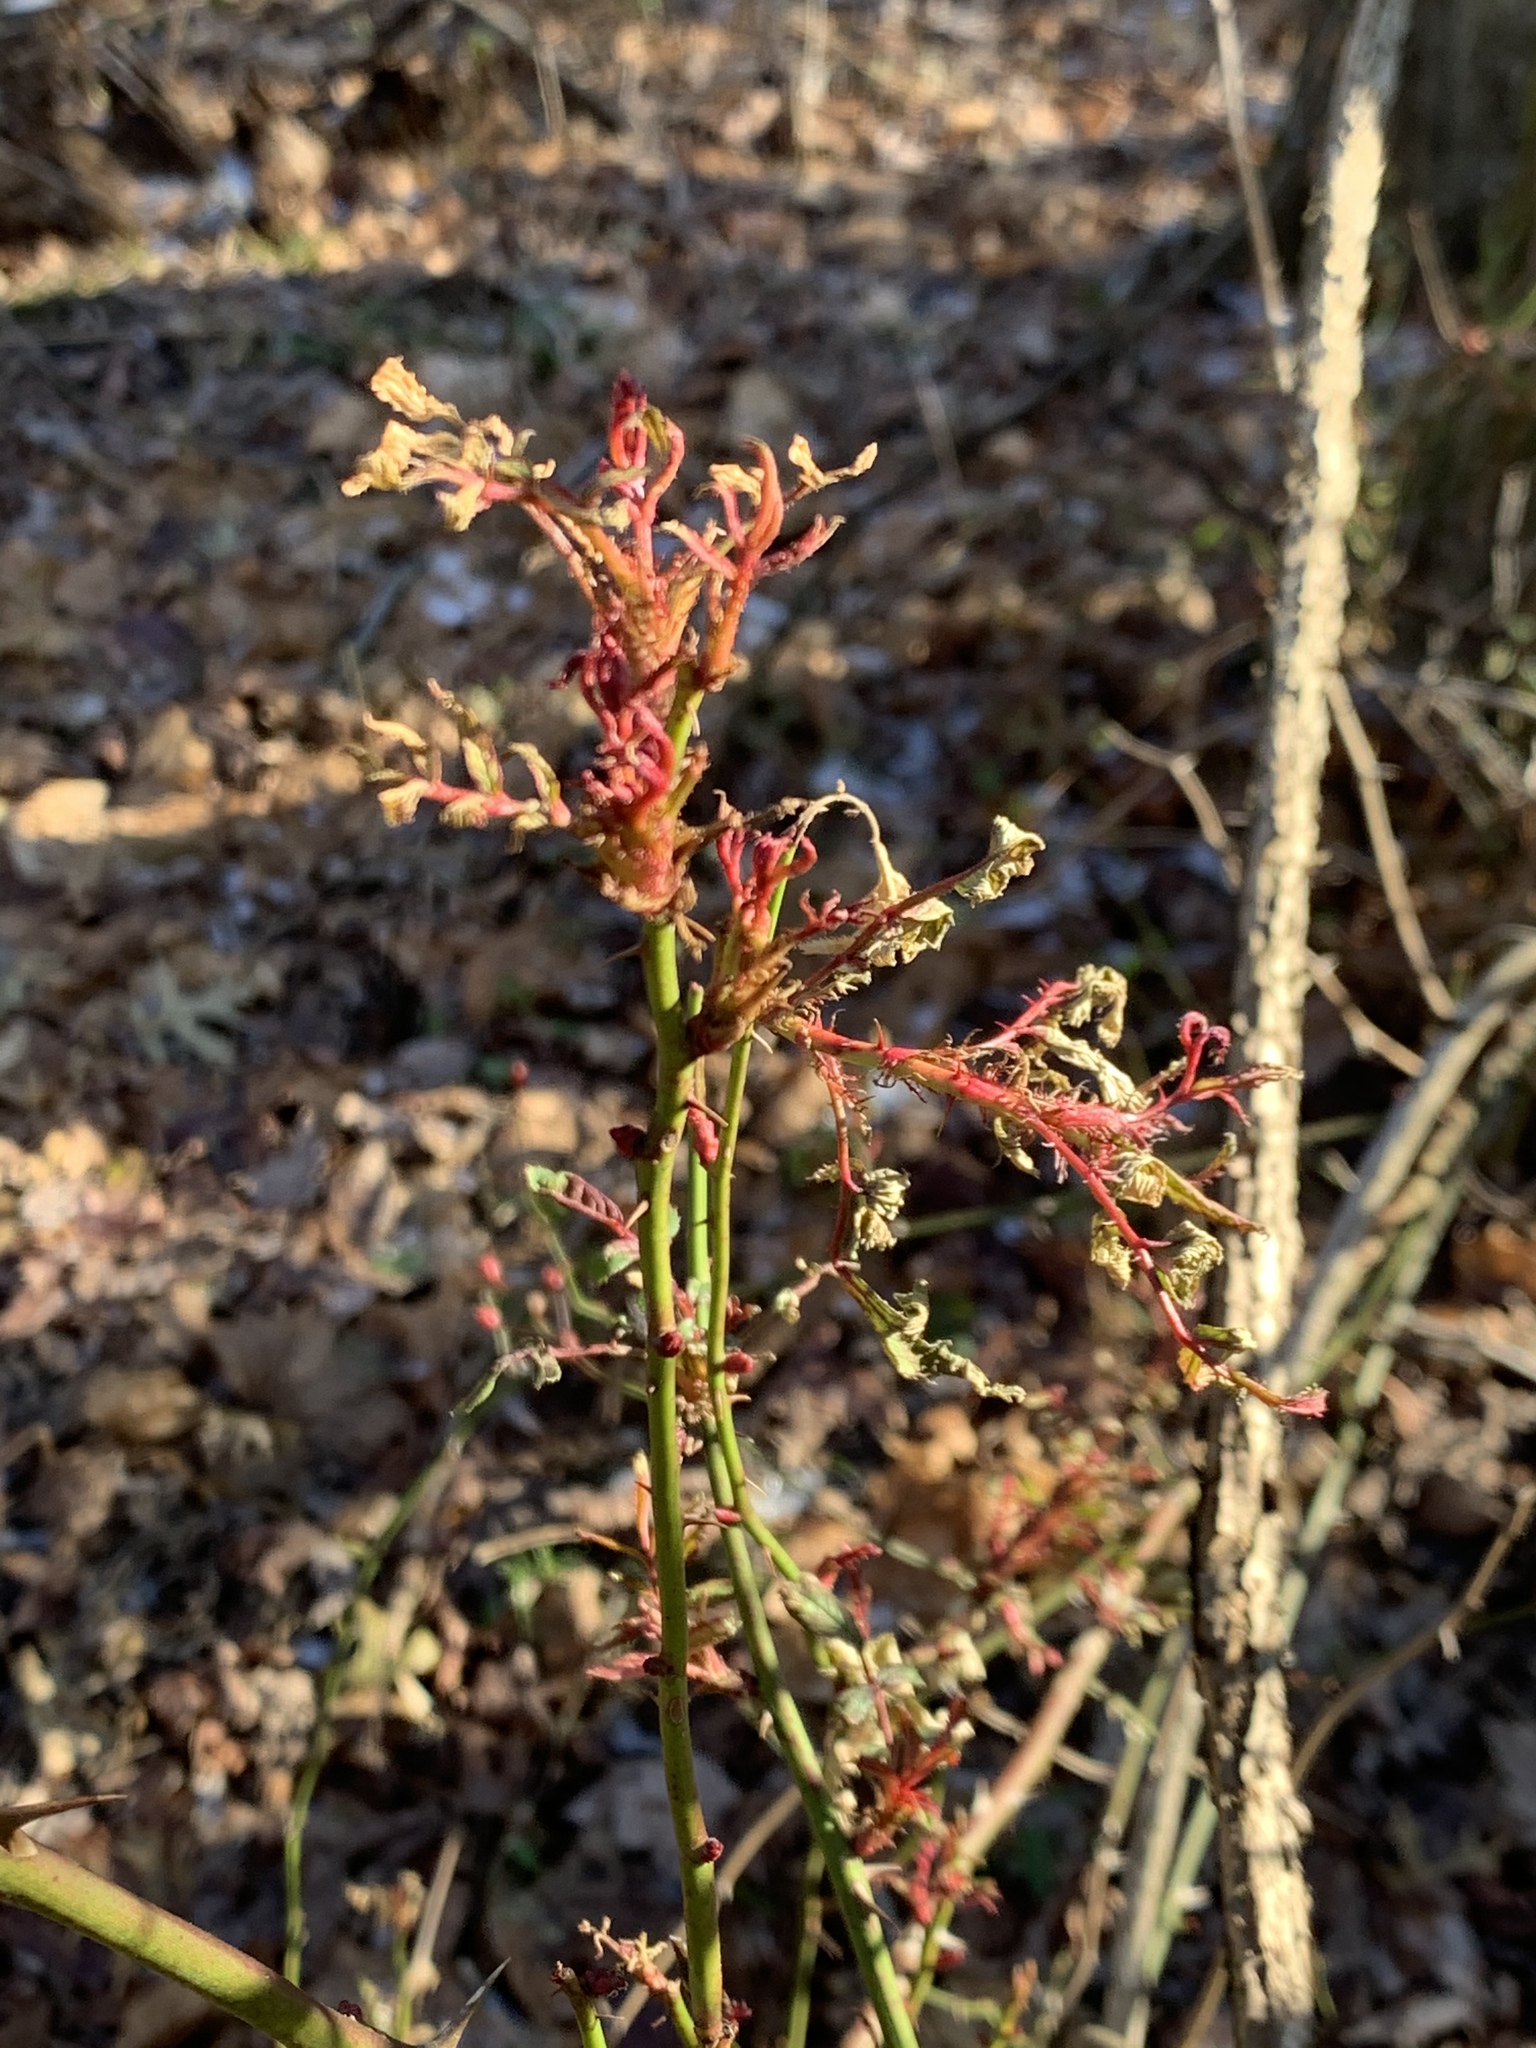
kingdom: Viruses
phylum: Negarnaviricota
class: Ellioviricetes
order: Bunyavirales
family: Fimoviridae
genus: Emaravirus
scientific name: Emaravirus rosae
